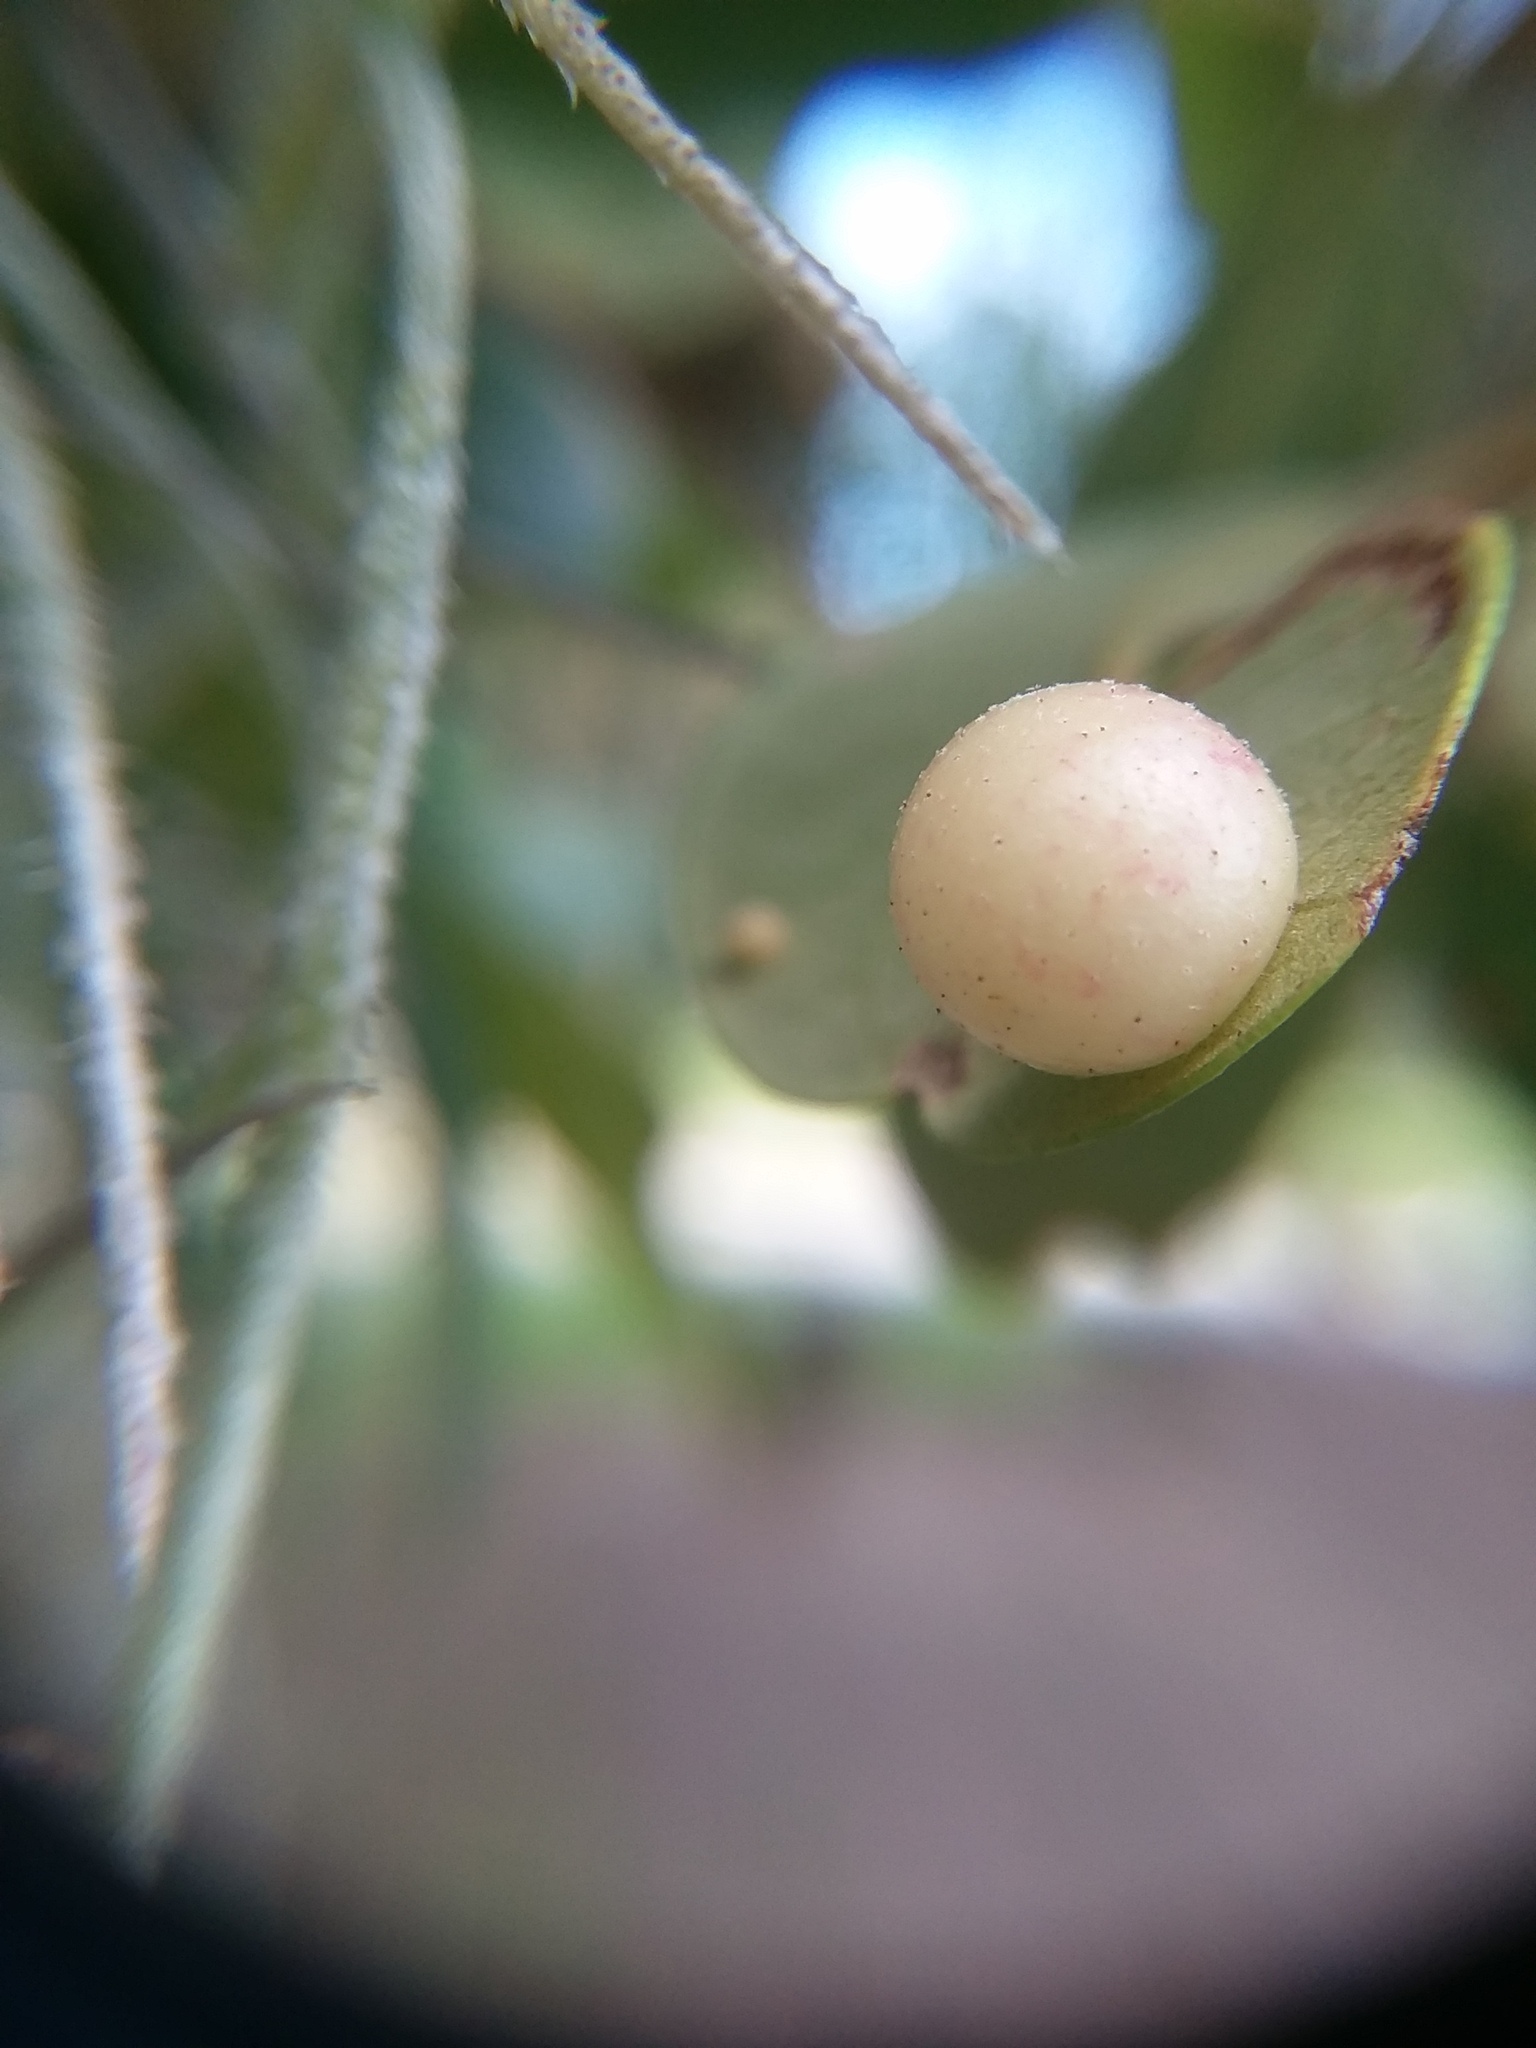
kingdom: Animalia
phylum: Arthropoda
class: Insecta
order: Hymenoptera
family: Cynipidae
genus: Belonocnema
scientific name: Belonocnema treatae
